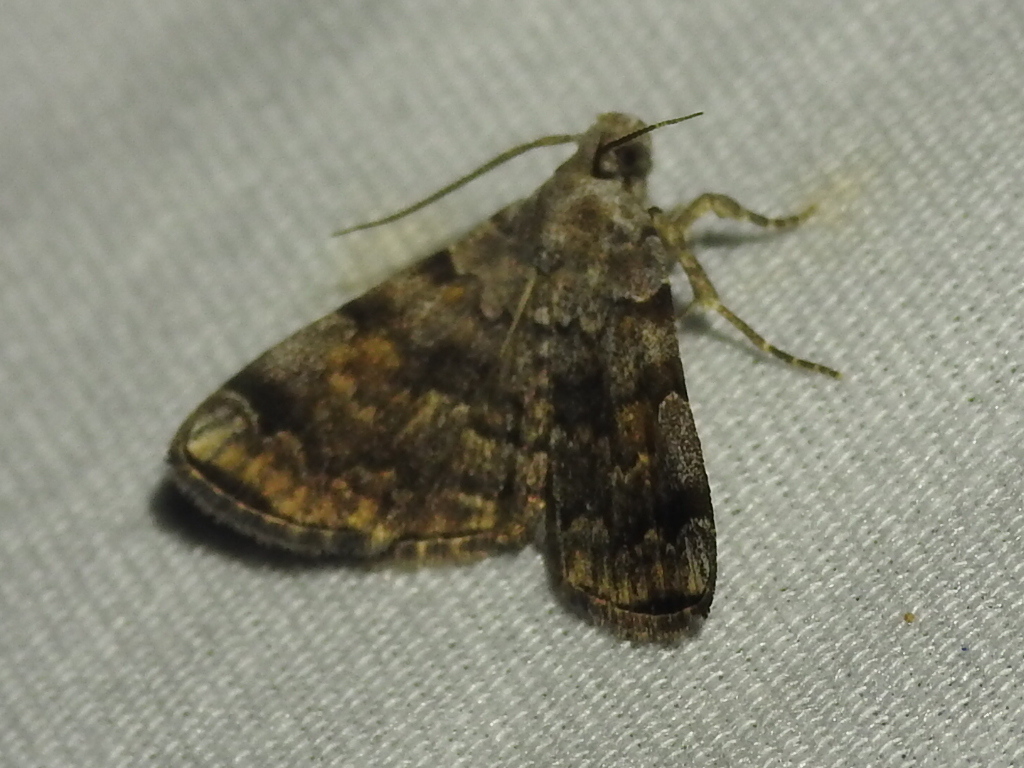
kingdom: Animalia
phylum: Arthropoda
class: Insecta
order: Lepidoptera
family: Erebidae
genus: Idia
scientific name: Idia americalis
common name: American idia moth
